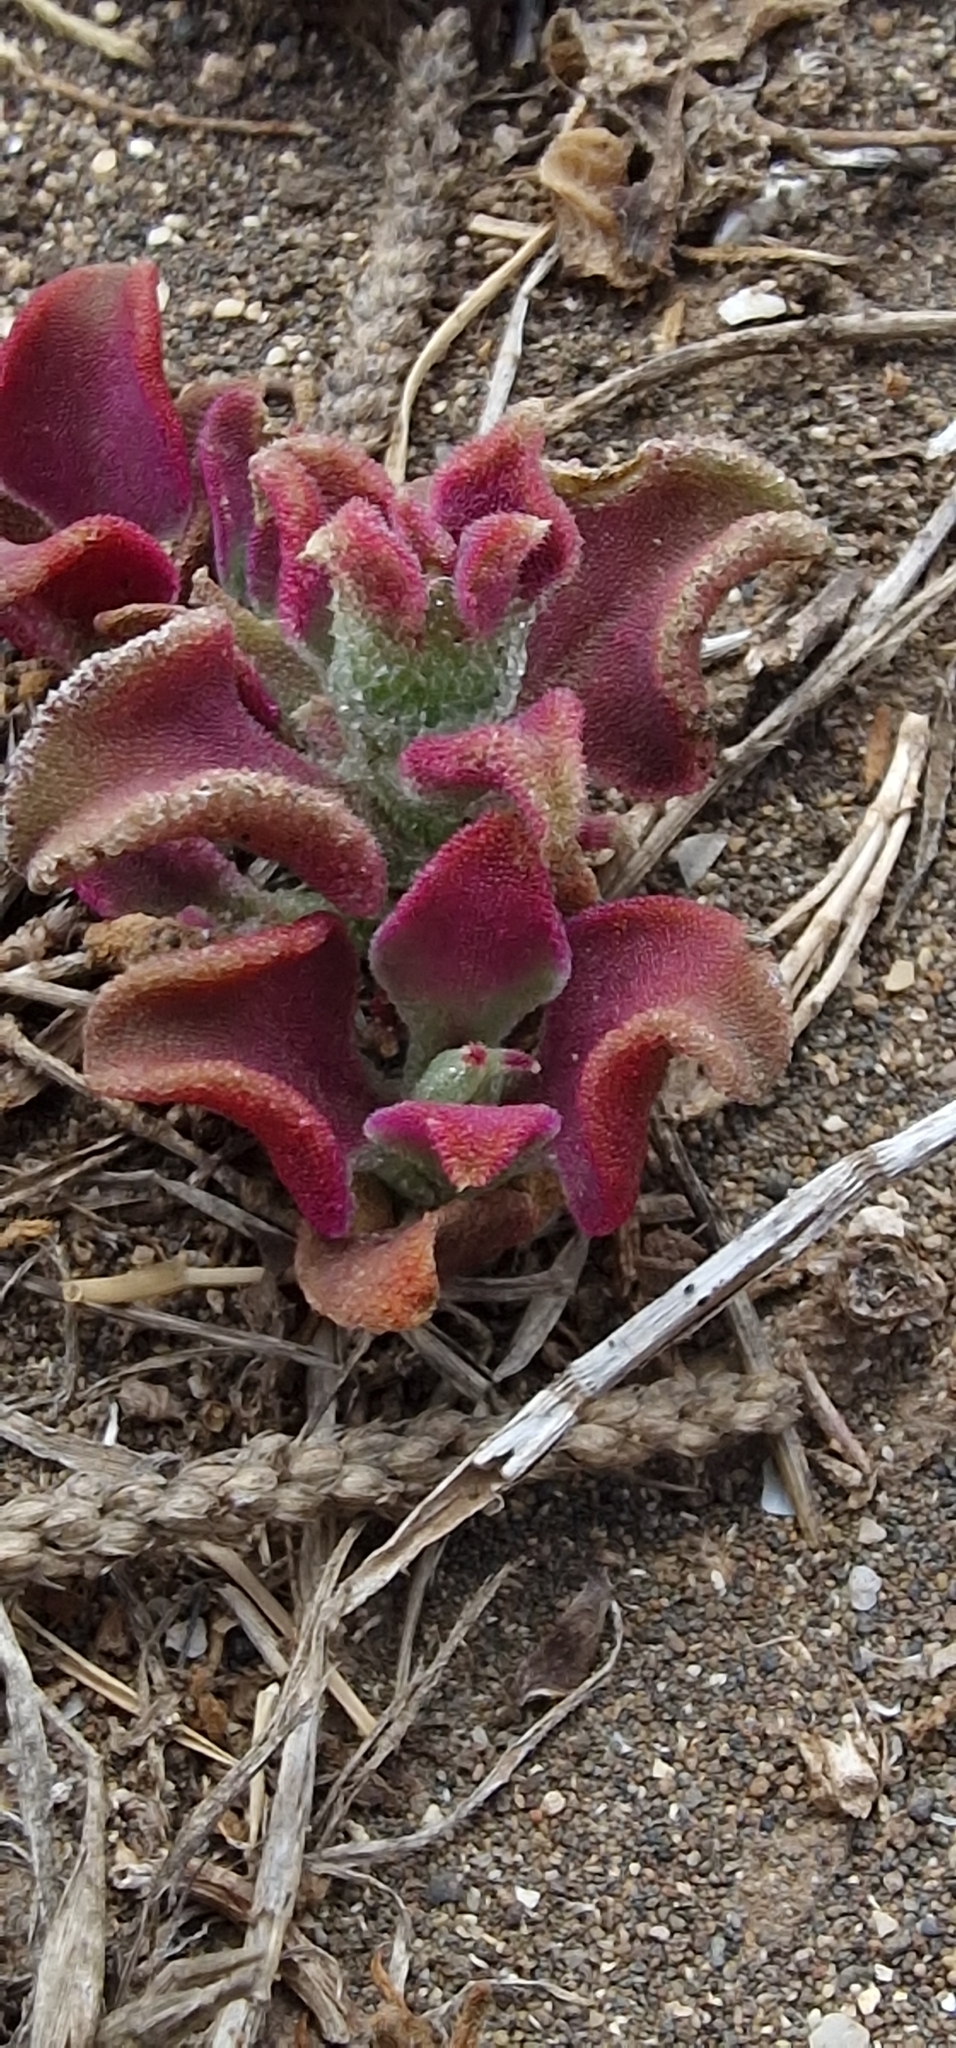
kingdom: Plantae
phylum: Tracheophyta
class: Magnoliopsida
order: Caryophyllales
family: Aizoaceae
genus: Mesembryanthemum
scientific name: Mesembryanthemum crystallinum
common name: Common iceplant
